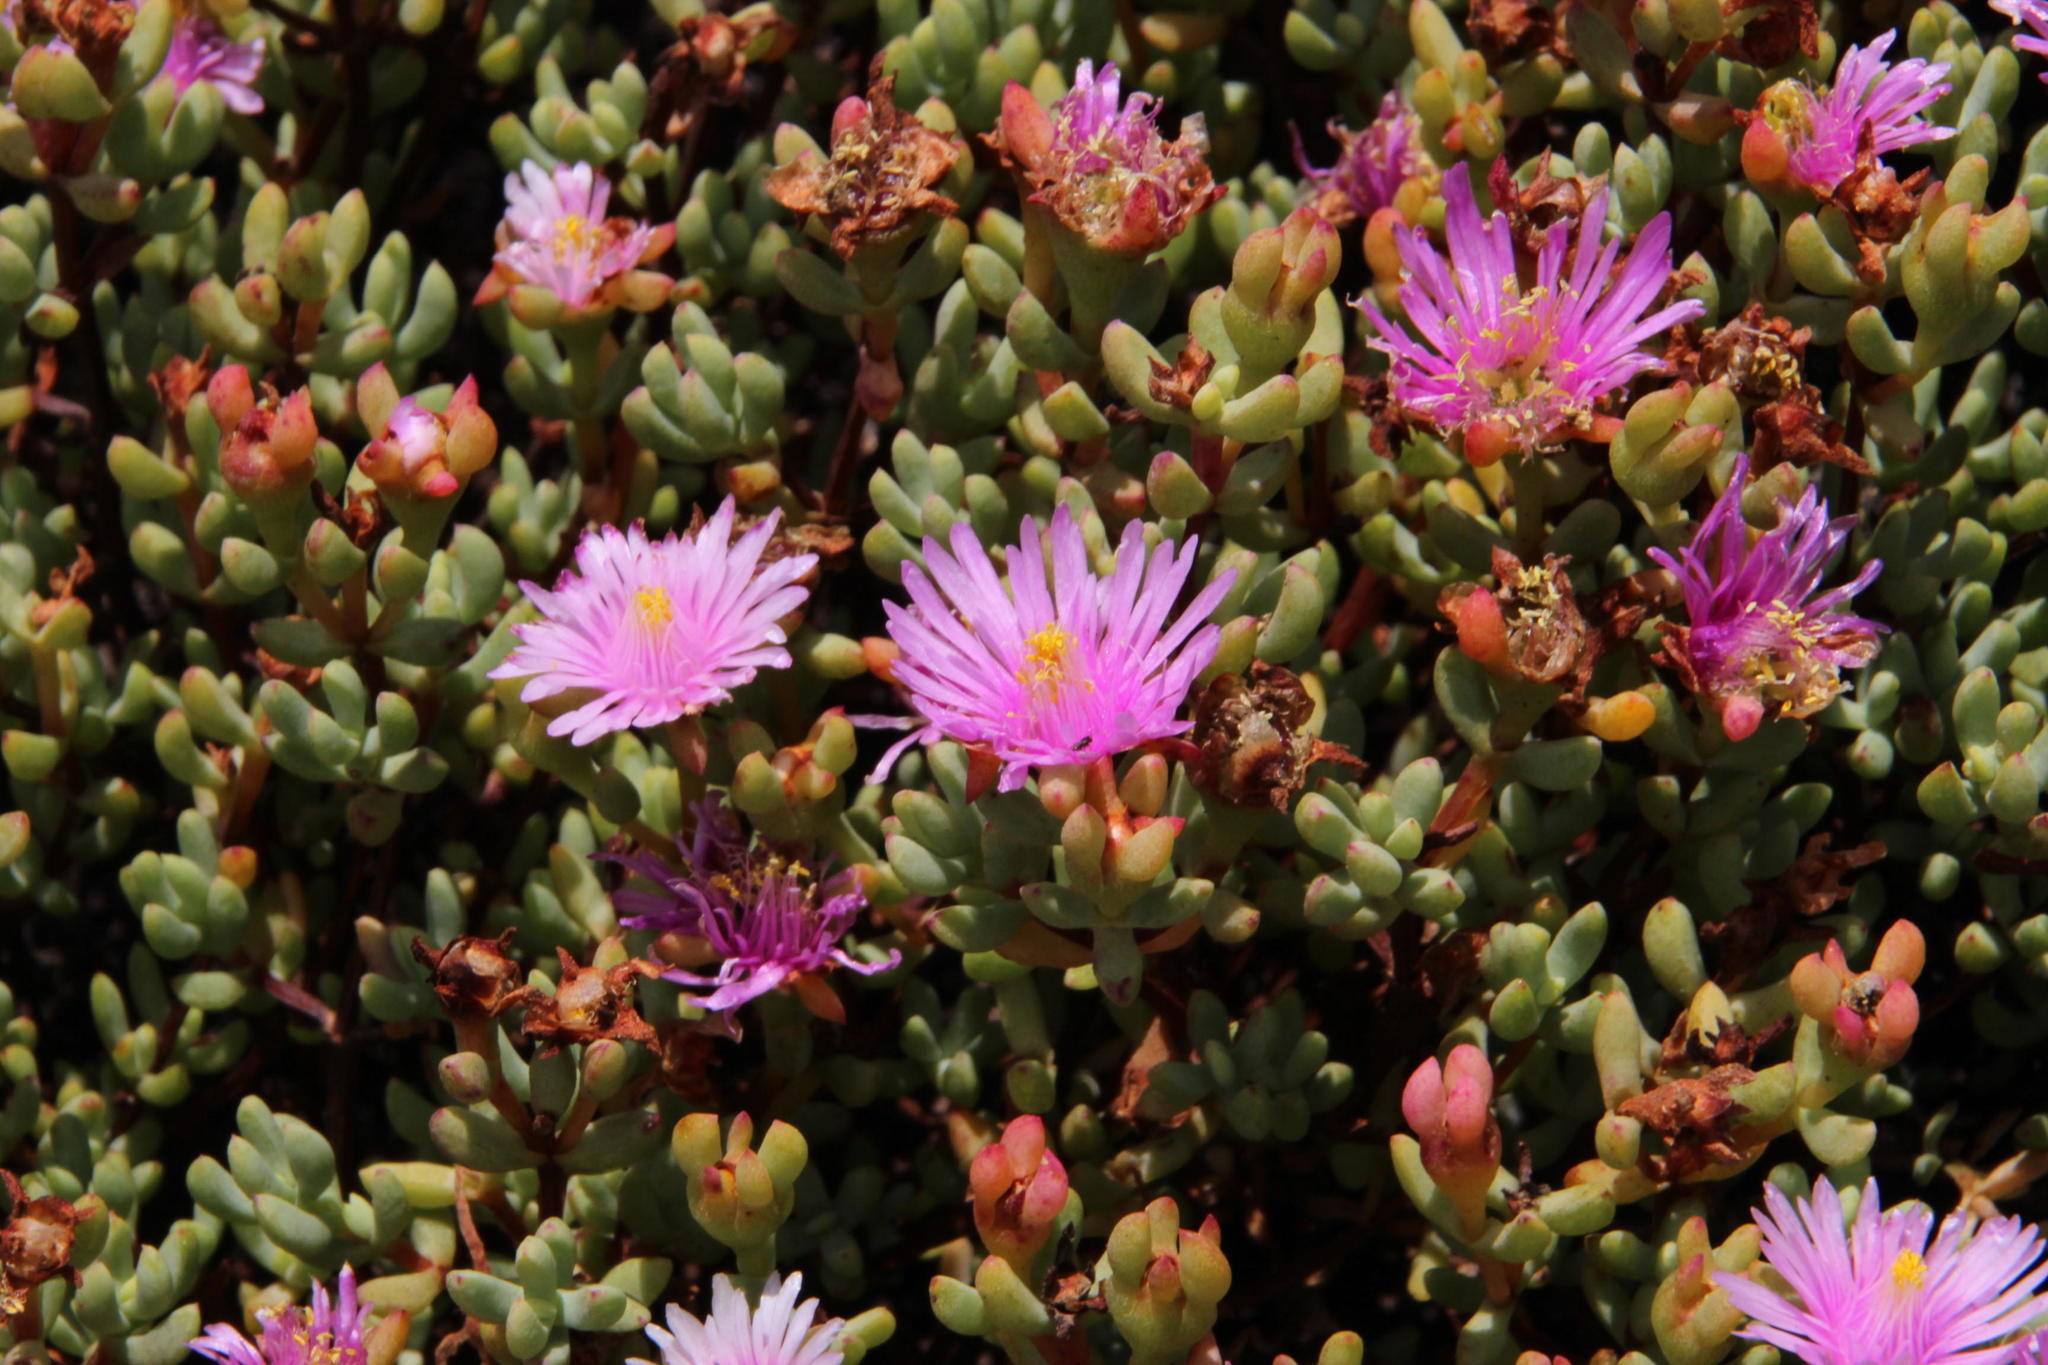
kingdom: Plantae
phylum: Tracheophyta
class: Magnoliopsida
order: Caryophyllales
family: Aizoaceae
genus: Lampranthus
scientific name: Lampranthus emarginatus
